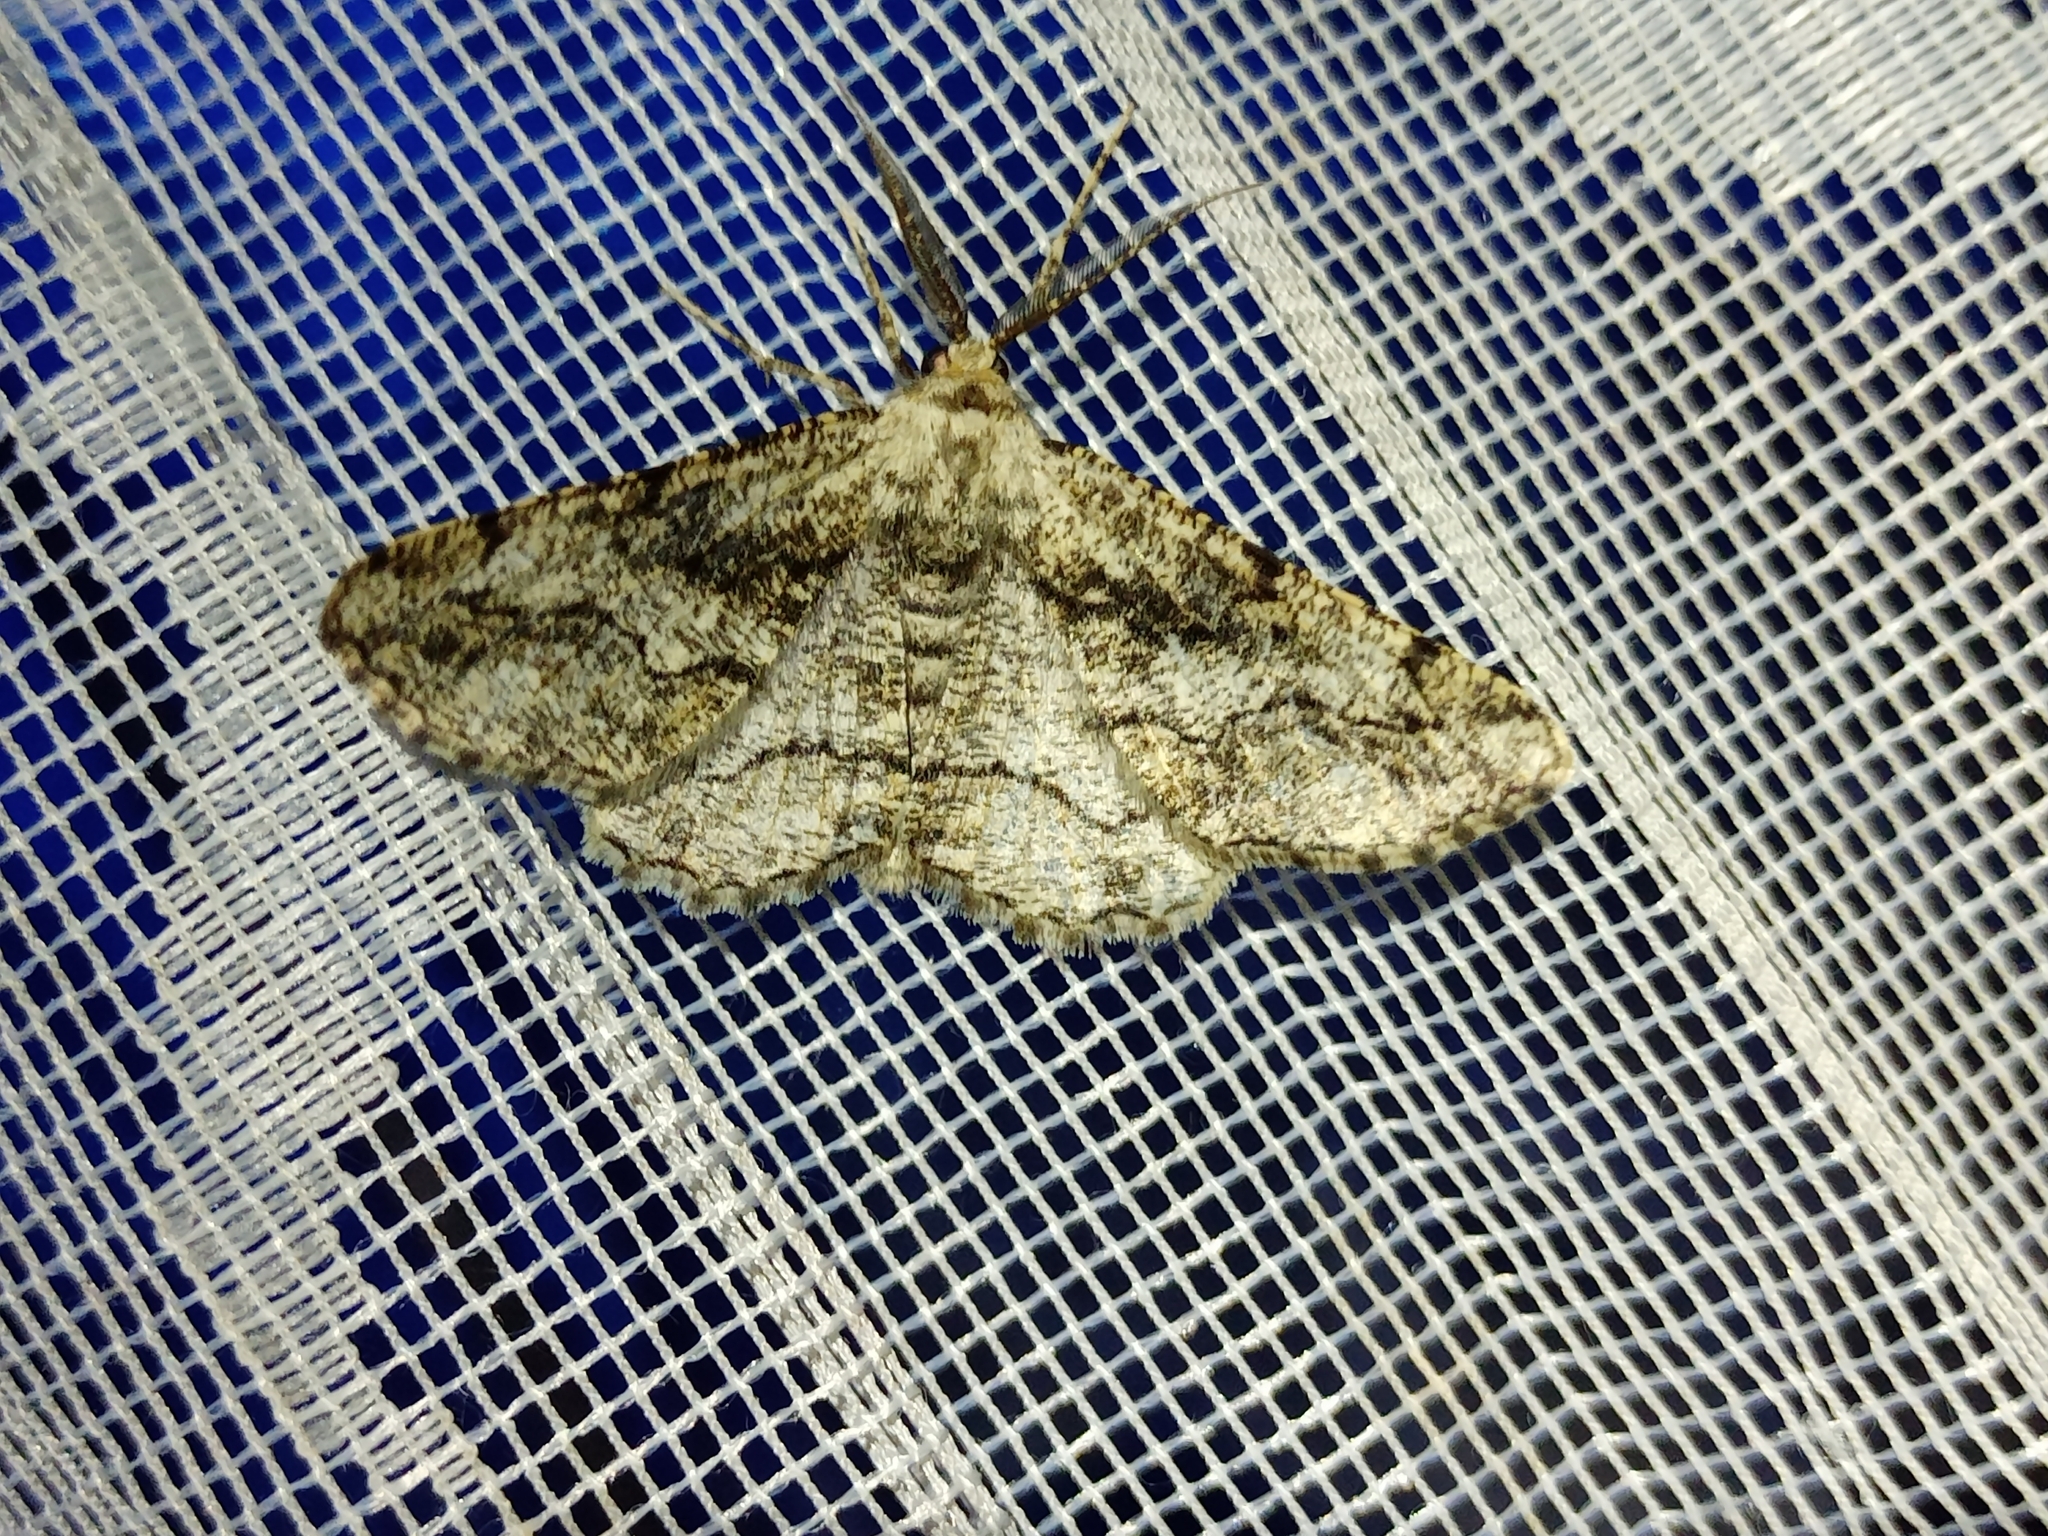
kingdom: Animalia
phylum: Arthropoda
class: Insecta
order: Lepidoptera
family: Geometridae
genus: Synopsia
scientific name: Synopsia sociaria
